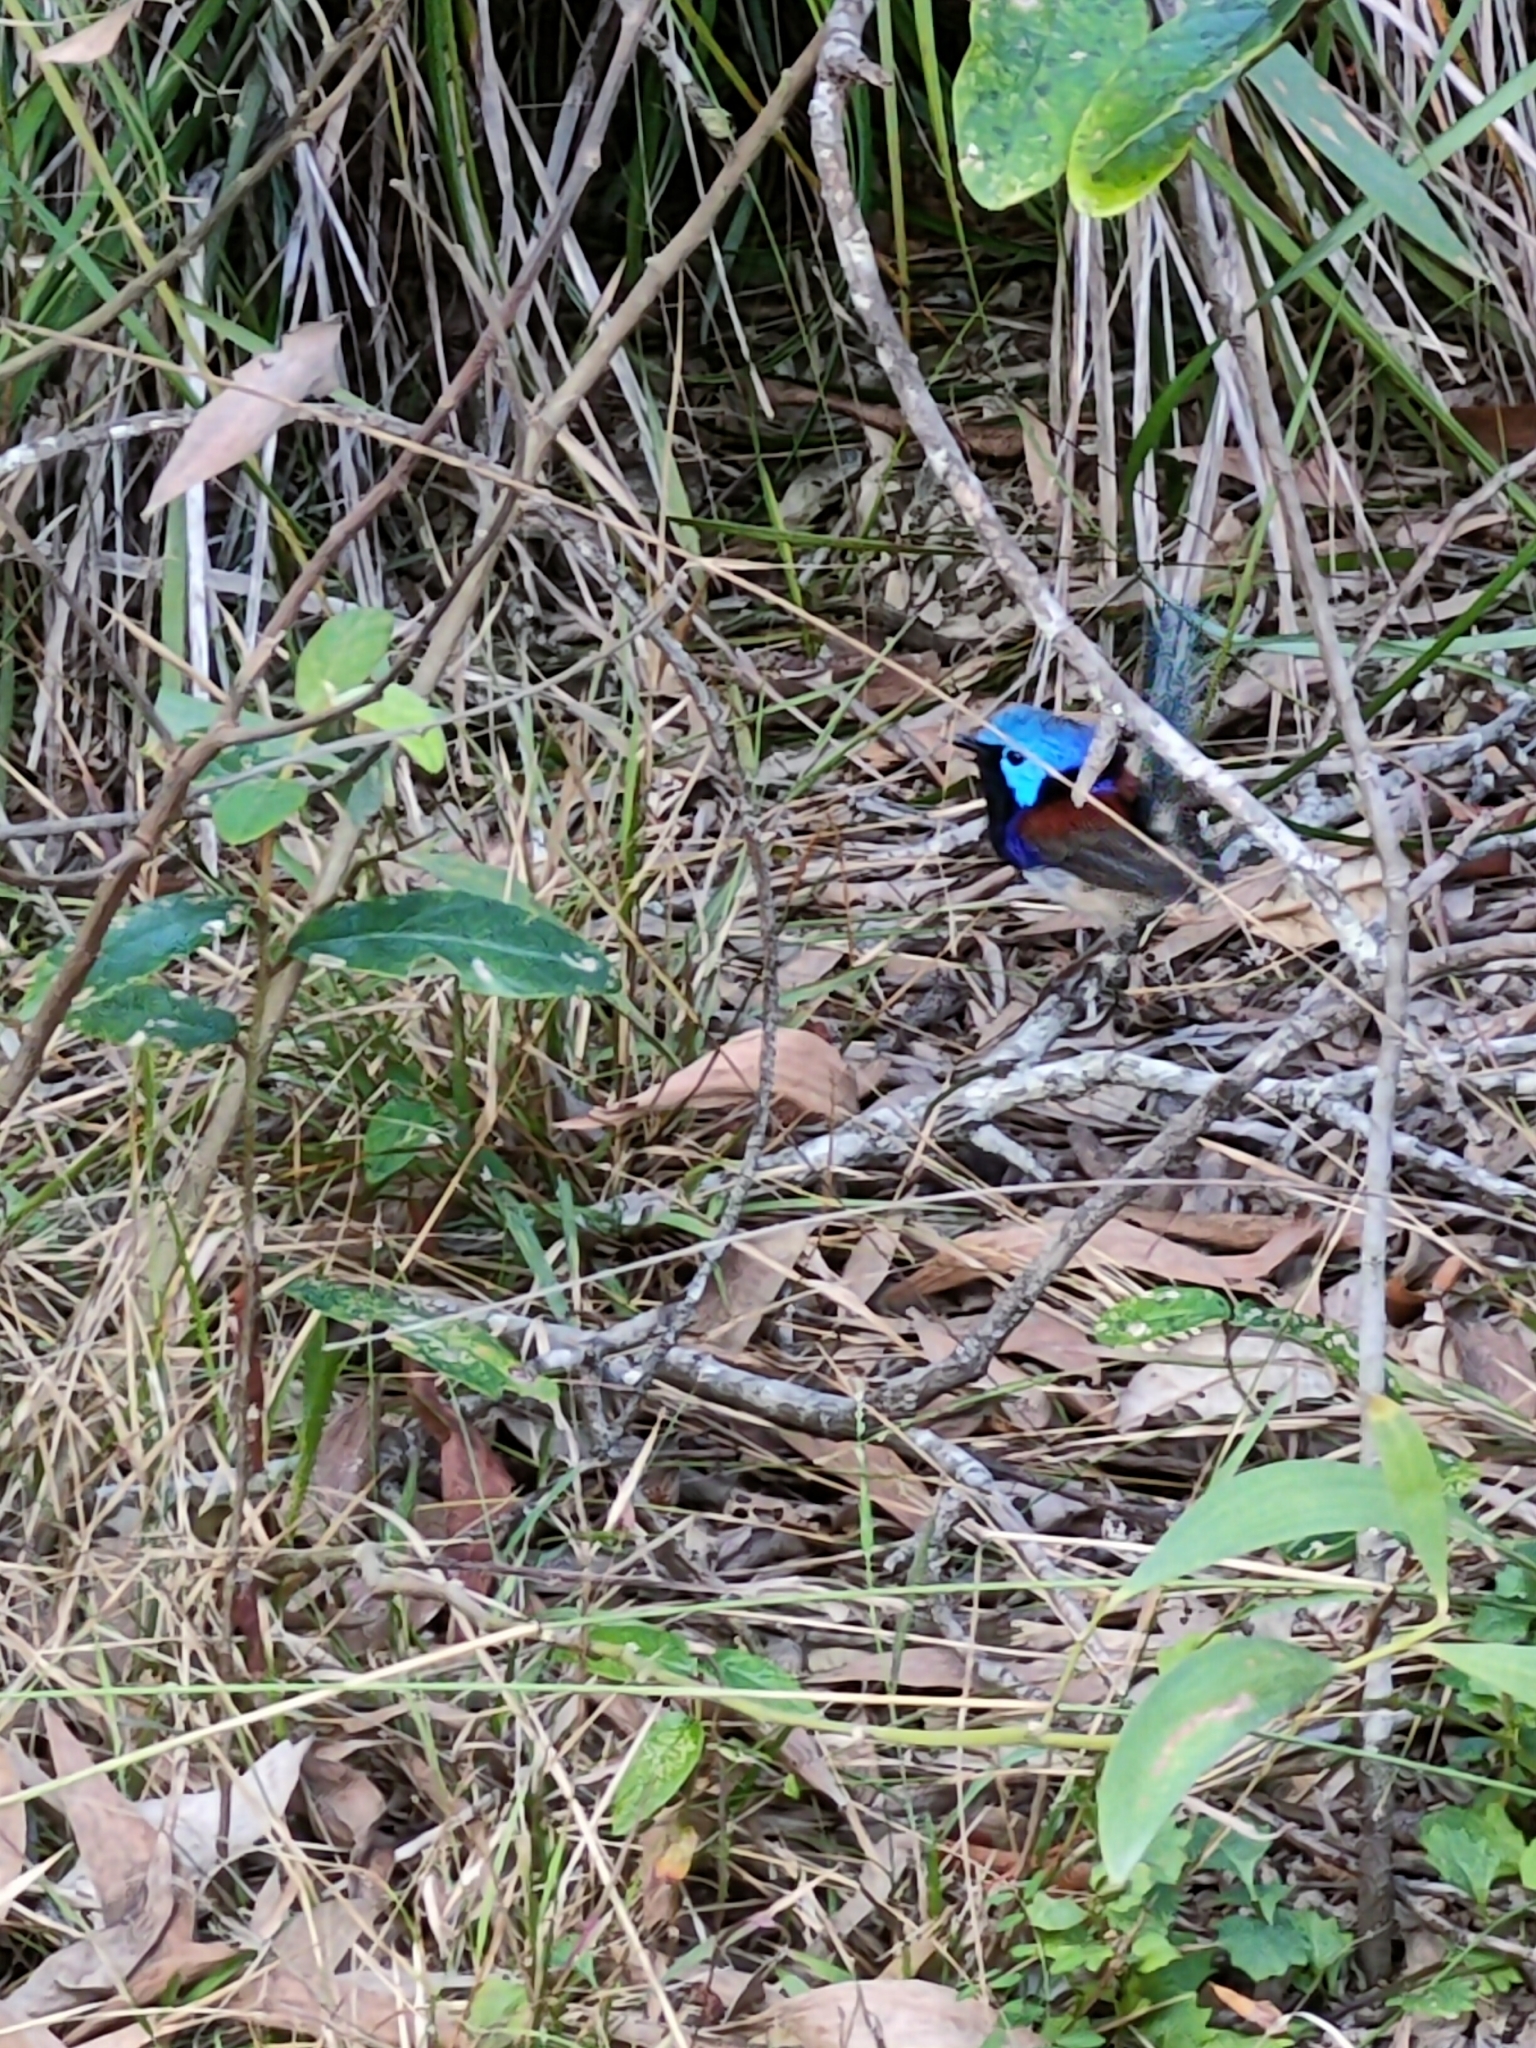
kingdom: Animalia
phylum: Chordata
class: Aves
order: Passeriformes
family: Maluridae
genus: Malurus
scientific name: Malurus lamberti
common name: Variegated fairywren
